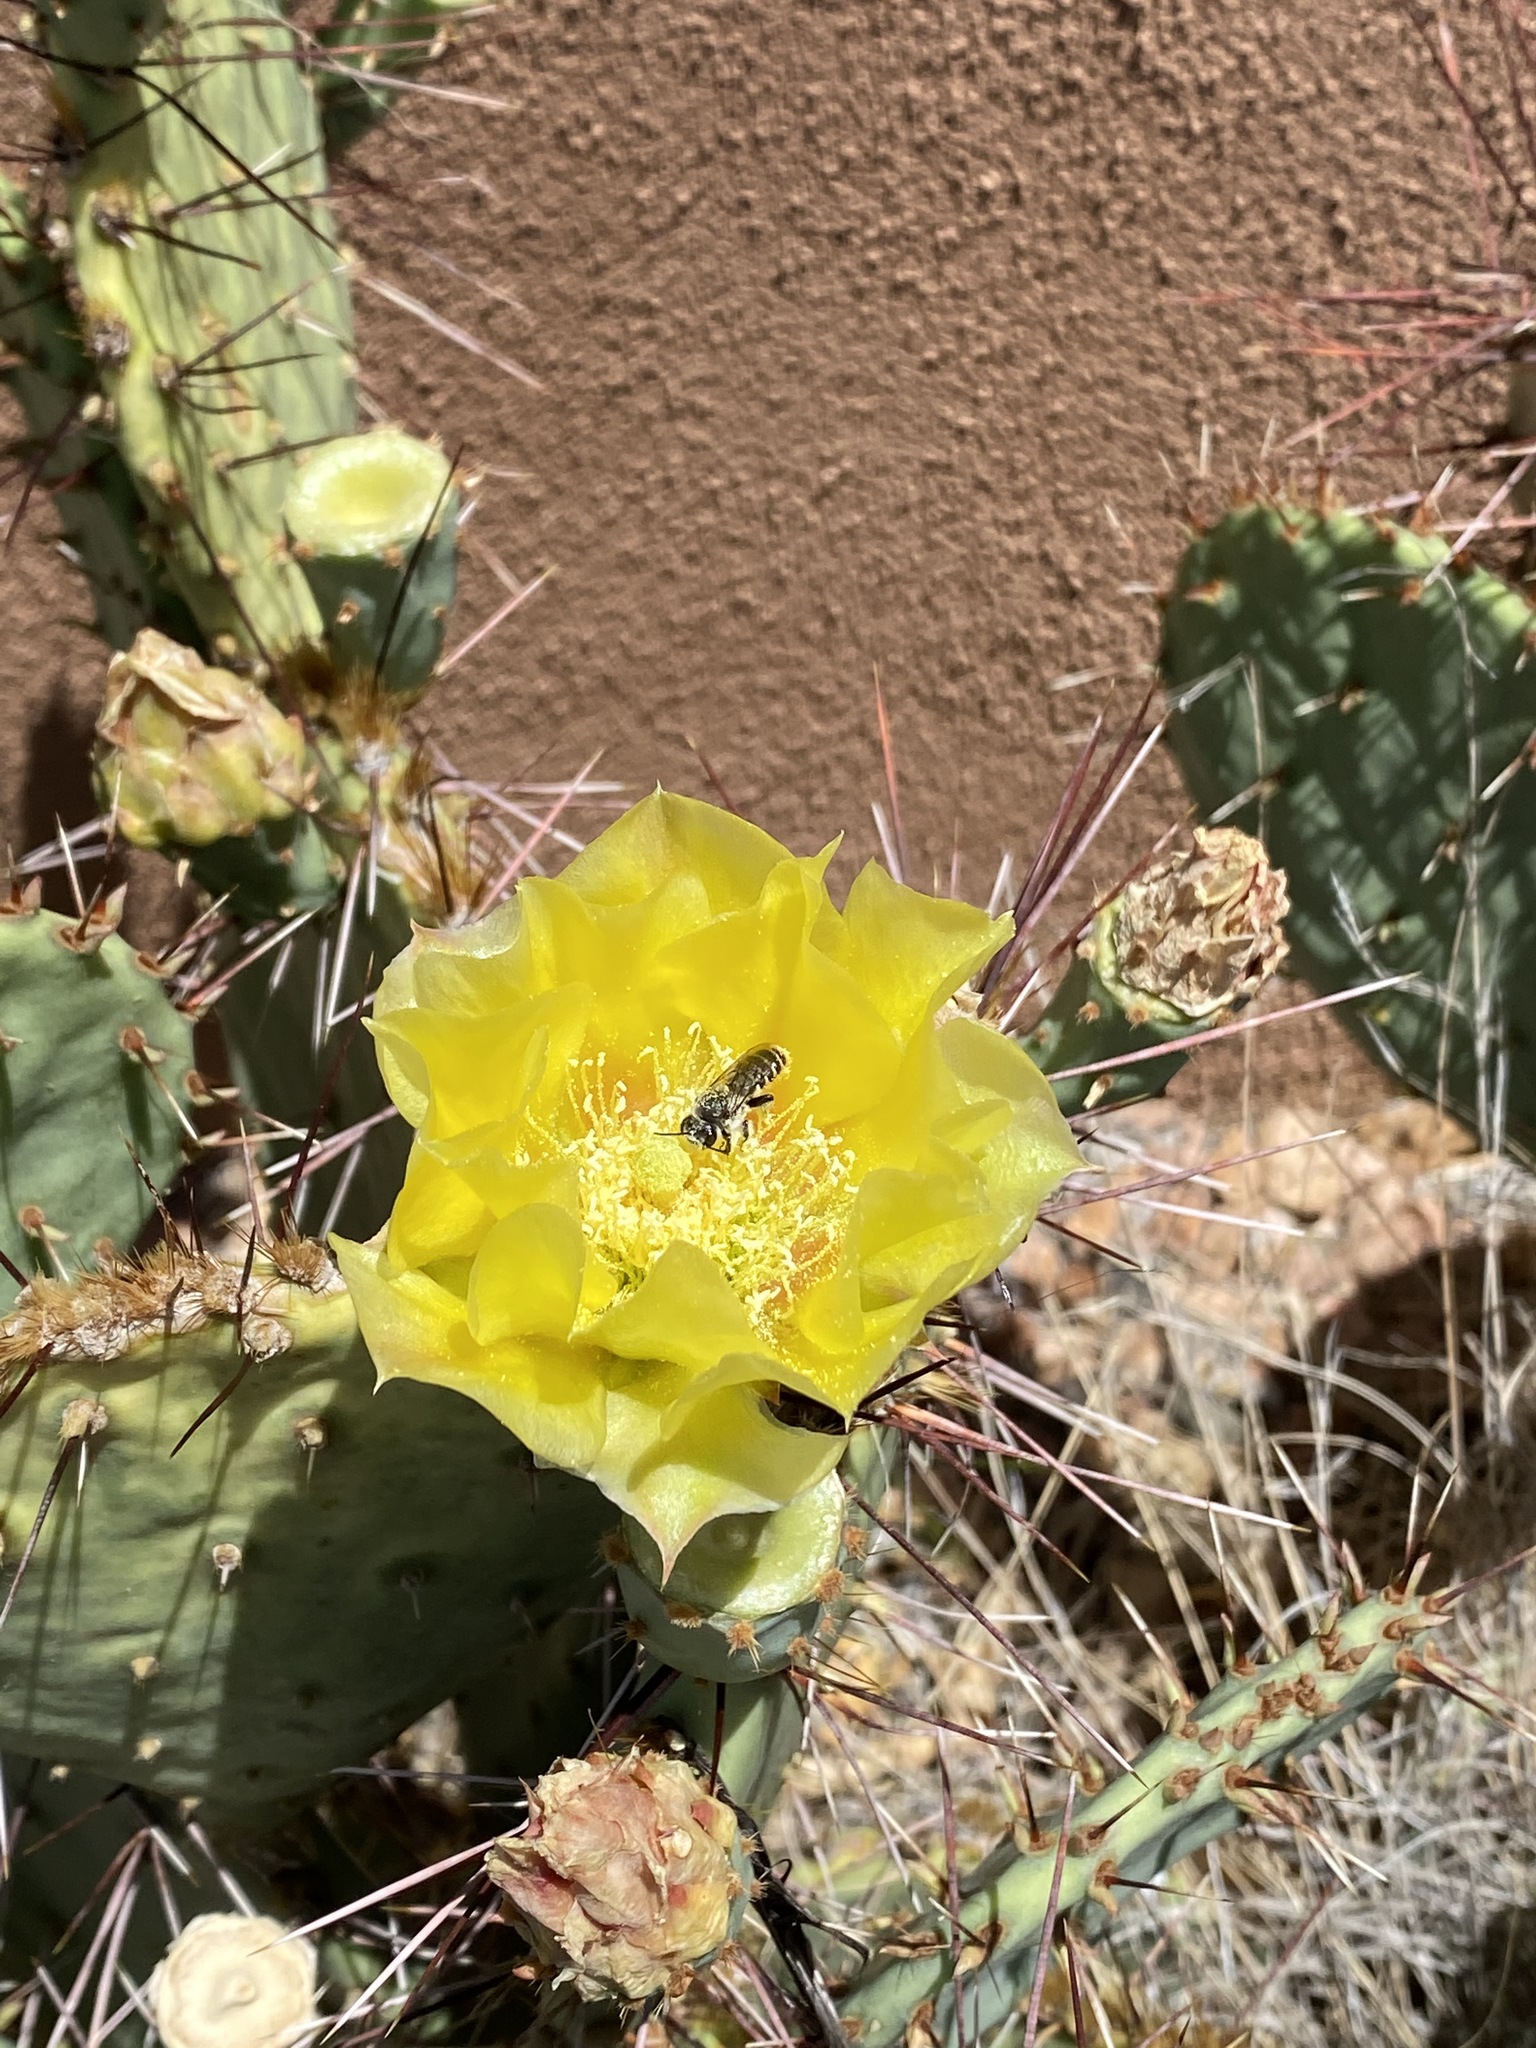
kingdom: Animalia
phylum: Arthropoda
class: Insecta
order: Hymenoptera
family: Megachilidae
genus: Lithurgopsis
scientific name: Lithurgopsis apicalis
